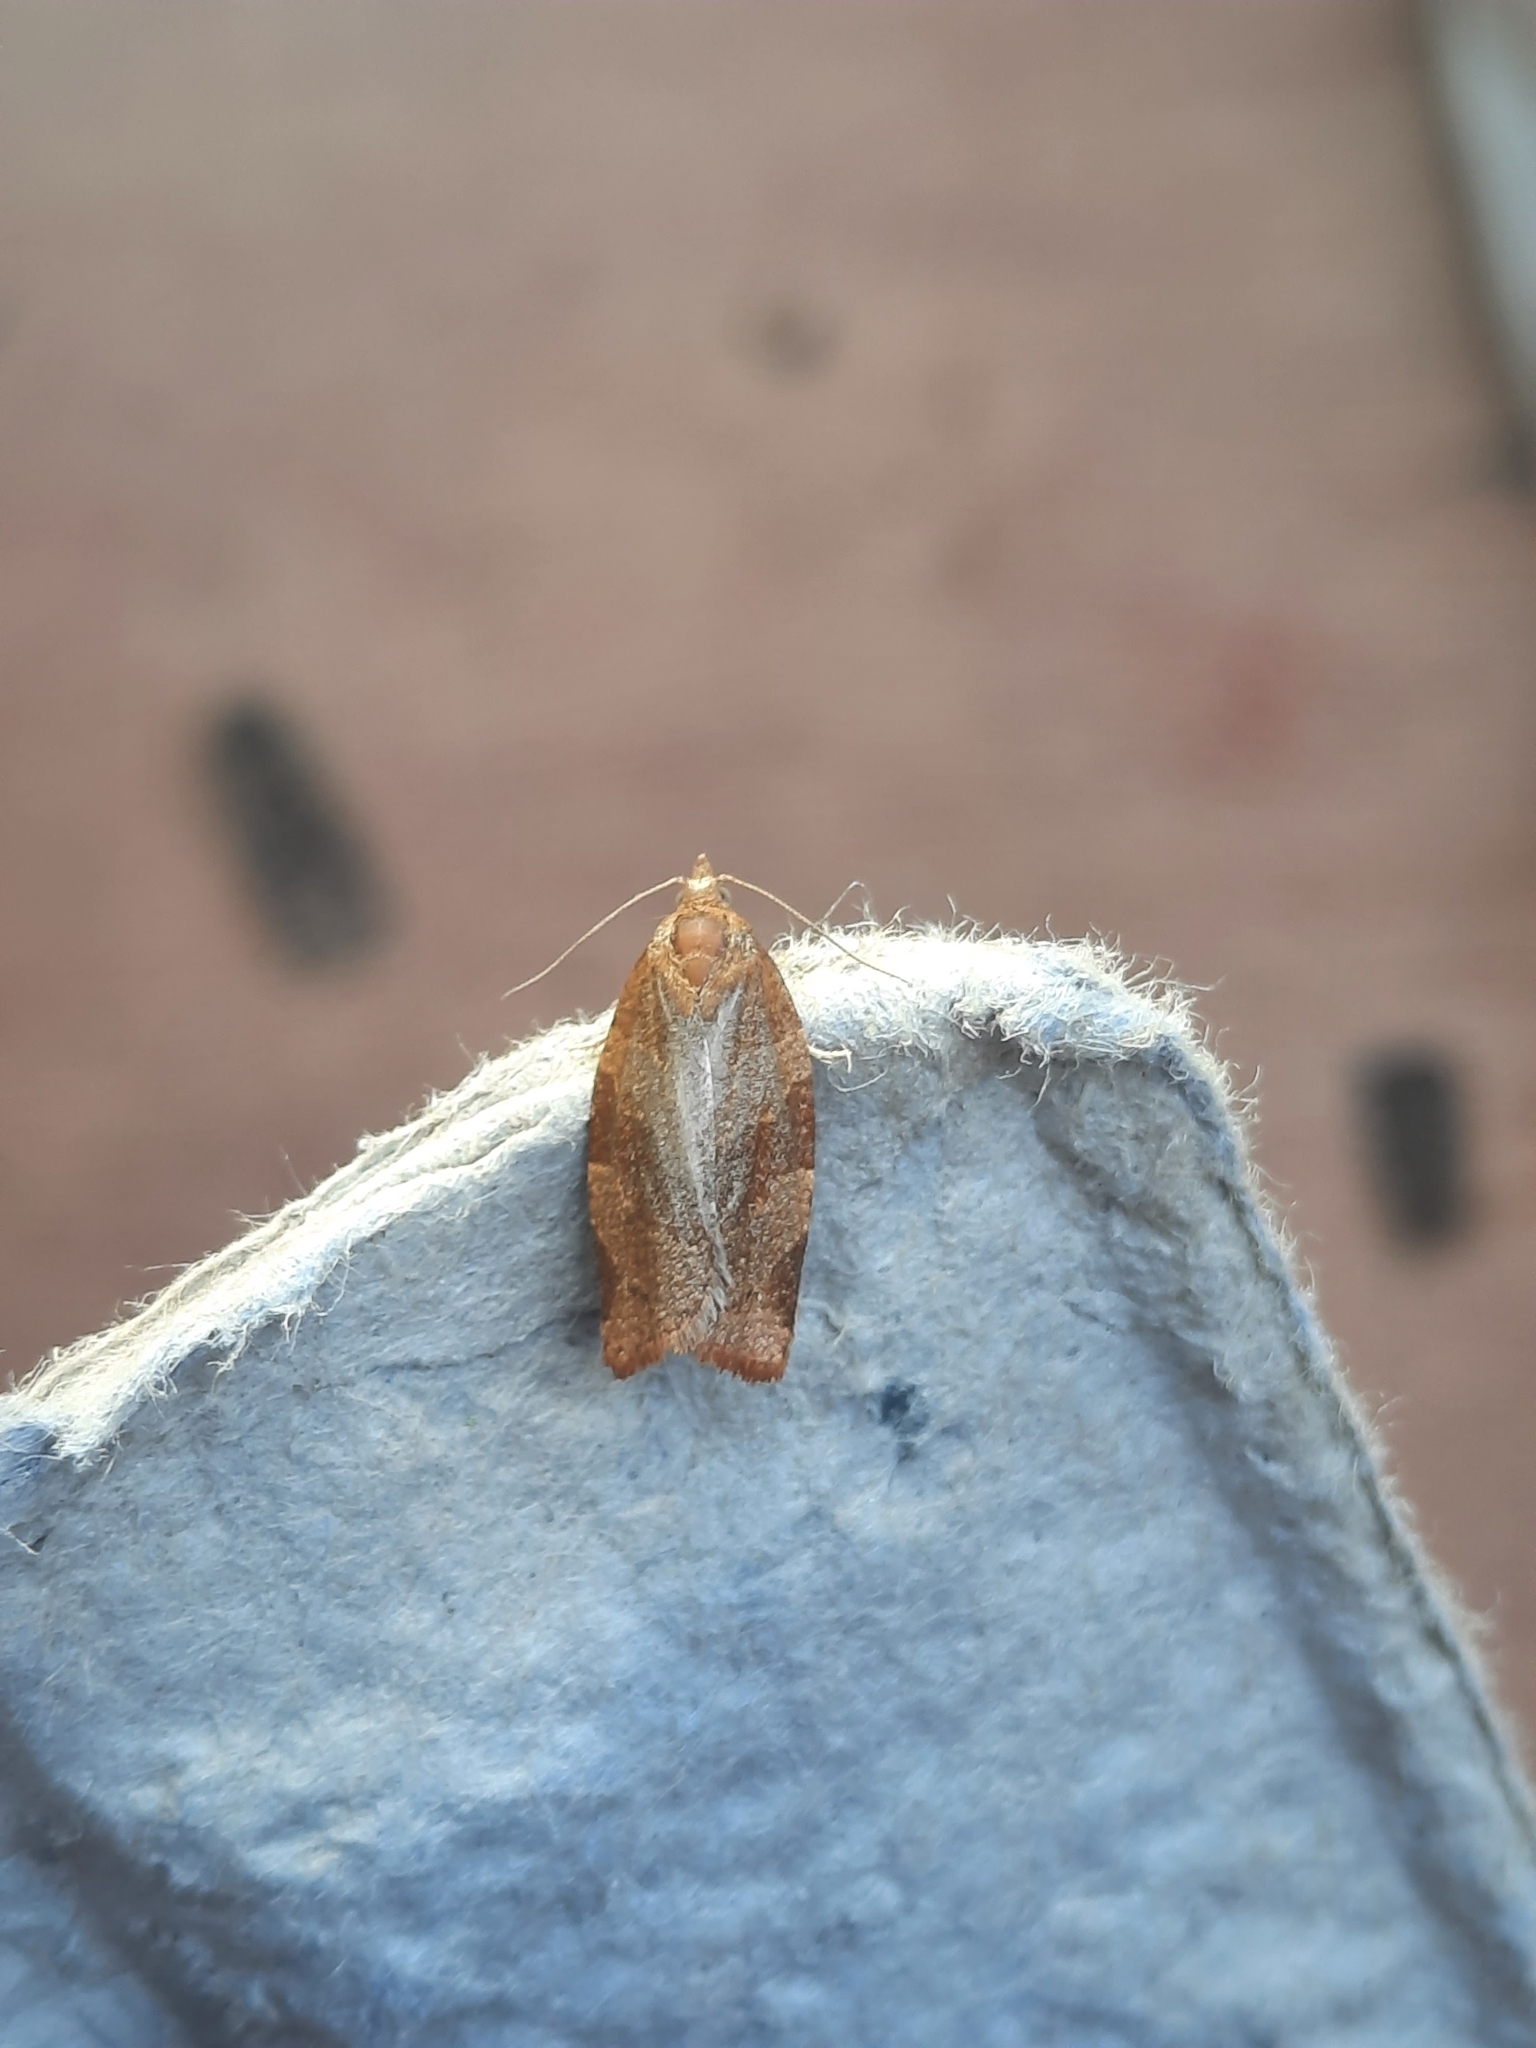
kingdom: Animalia
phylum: Arthropoda
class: Insecta
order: Lepidoptera
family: Tortricidae
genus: Pandemis
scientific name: Pandemis cerasana
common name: Barred fruit-tree tortrix
